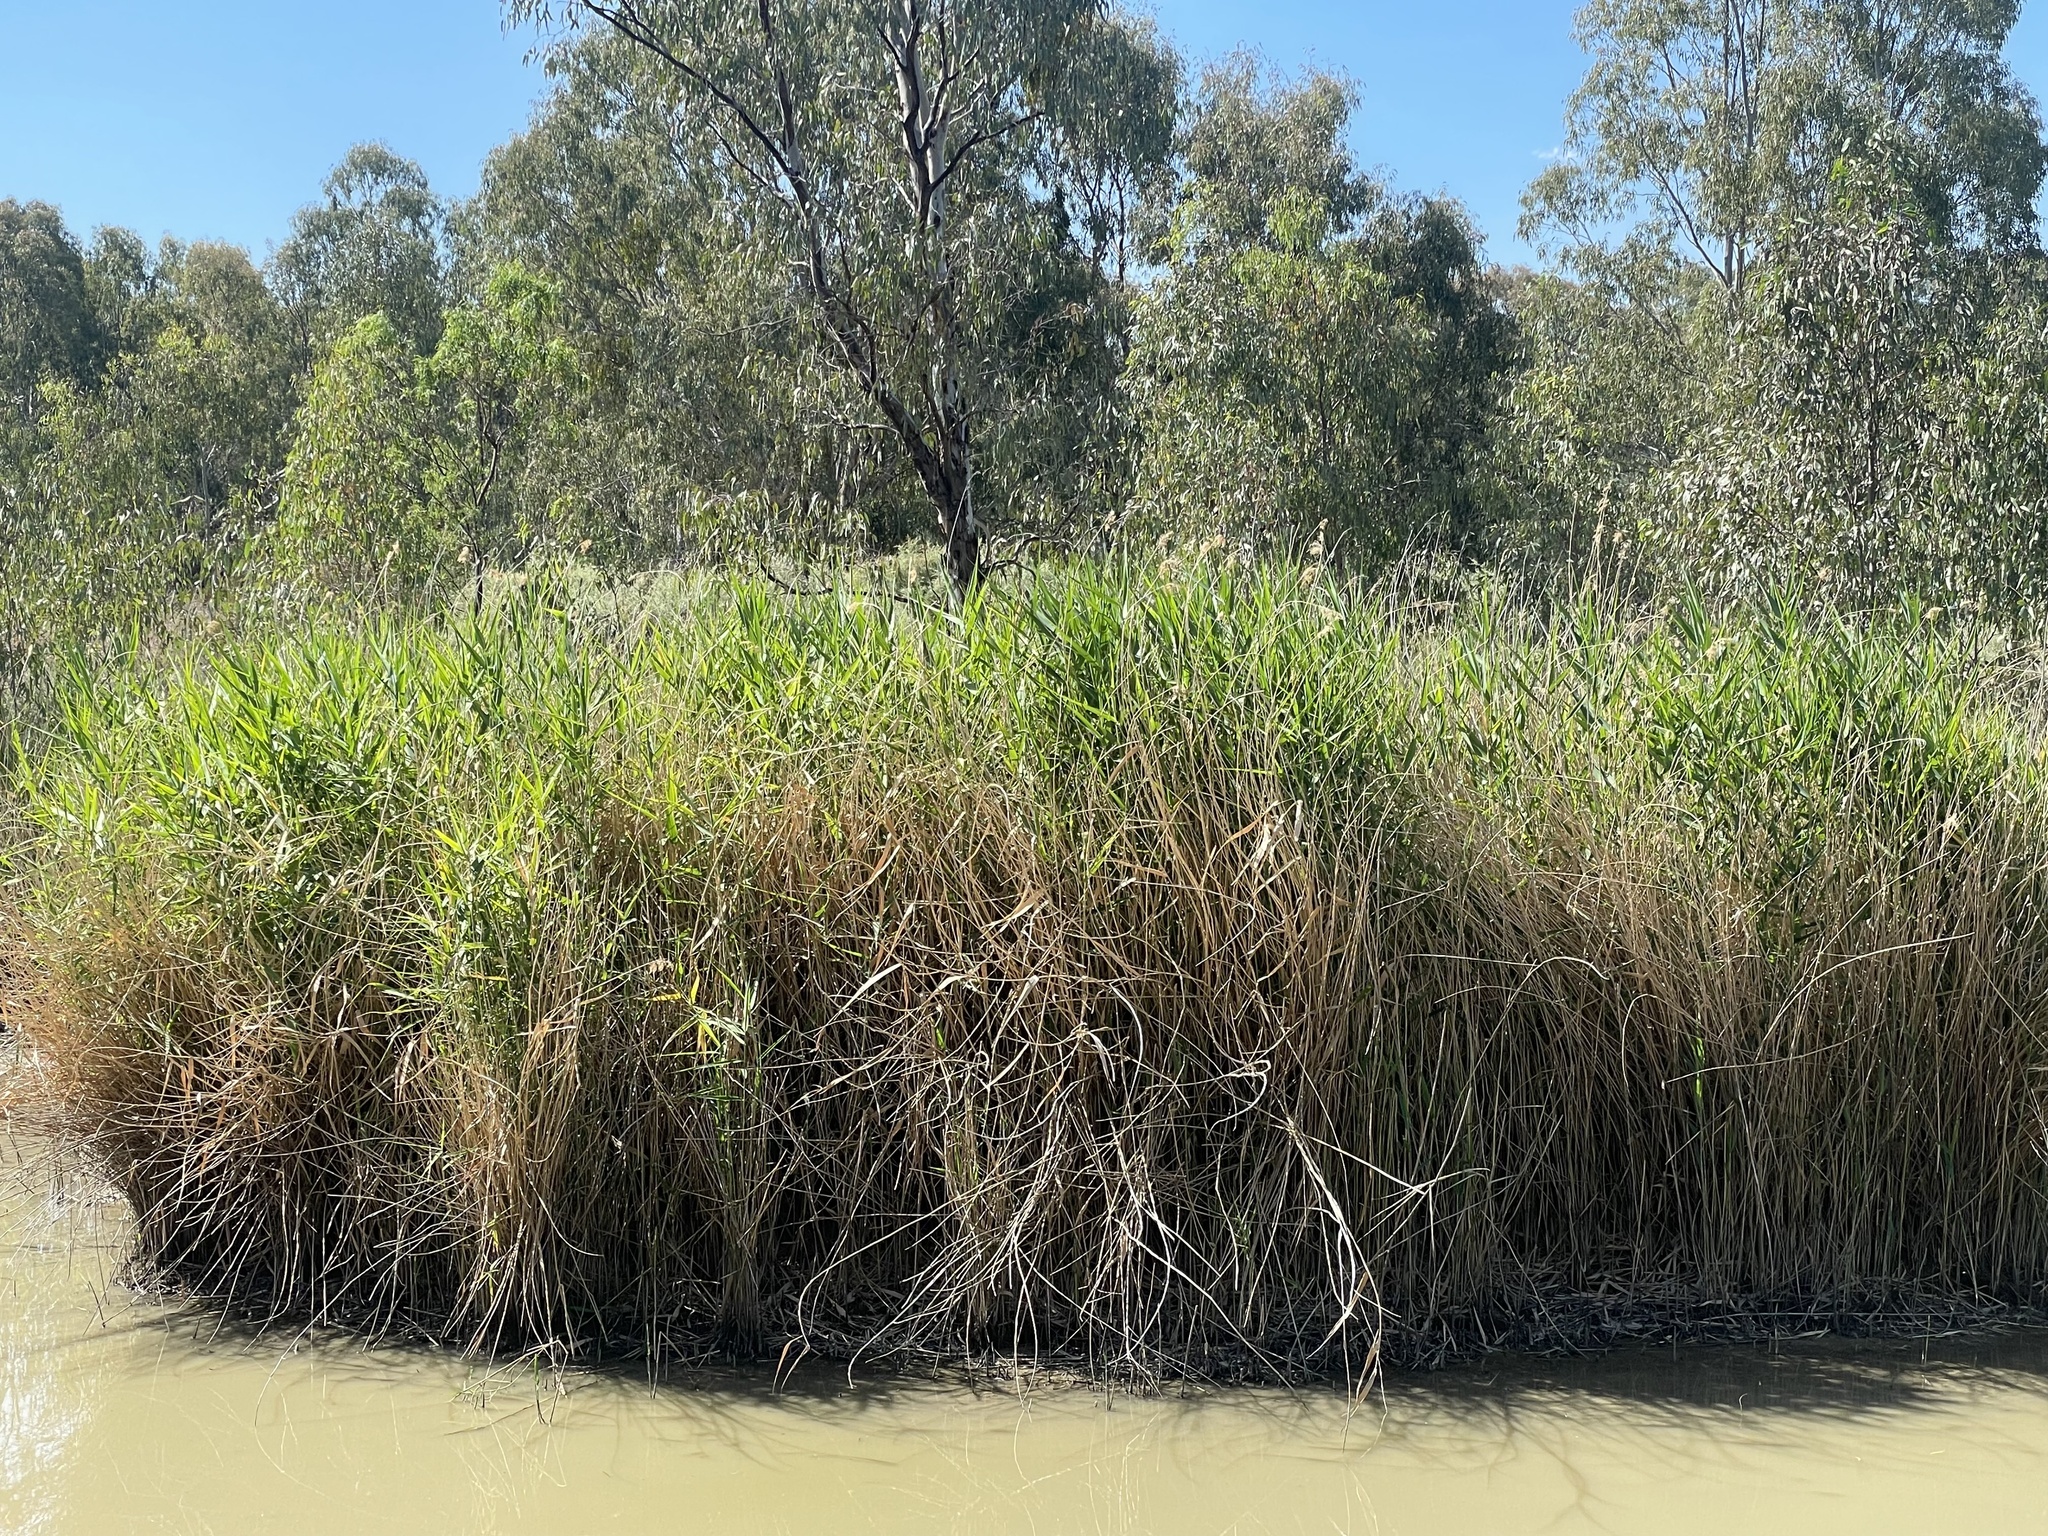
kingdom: Plantae
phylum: Tracheophyta
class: Liliopsida
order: Poales
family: Poaceae
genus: Phragmites
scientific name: Phragmites australis
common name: Common reed
